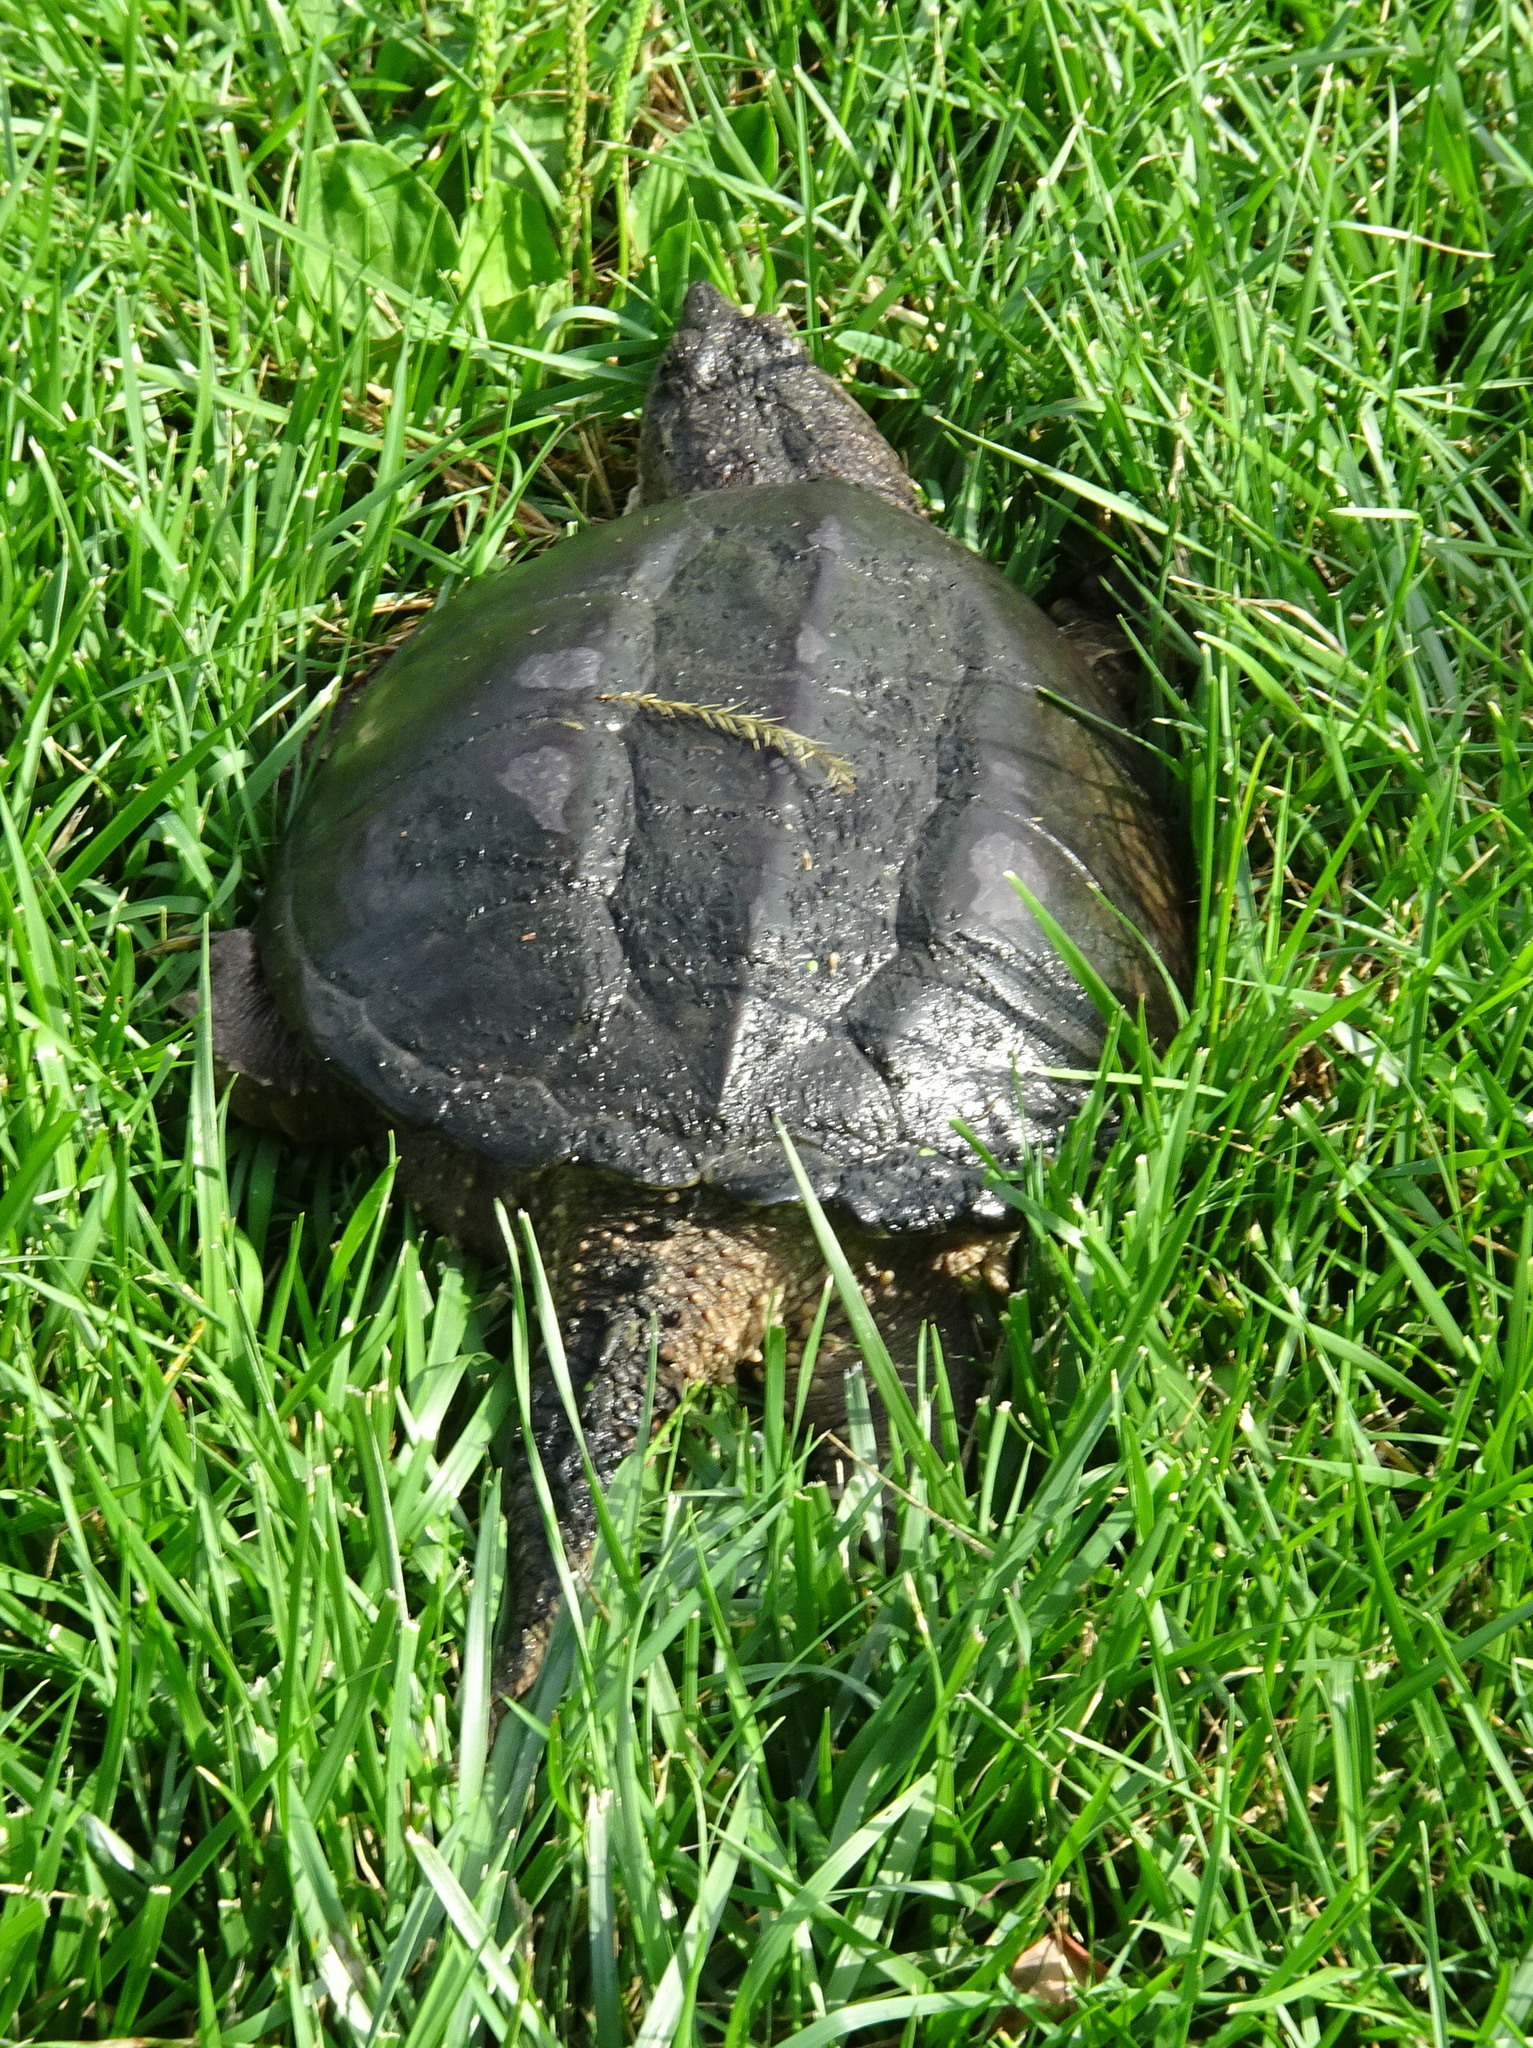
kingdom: Animalia
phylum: Chordata
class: Testudines
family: Chelydridae
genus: Chelydra
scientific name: Chelydra serpentina
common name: Common snapping turtle
